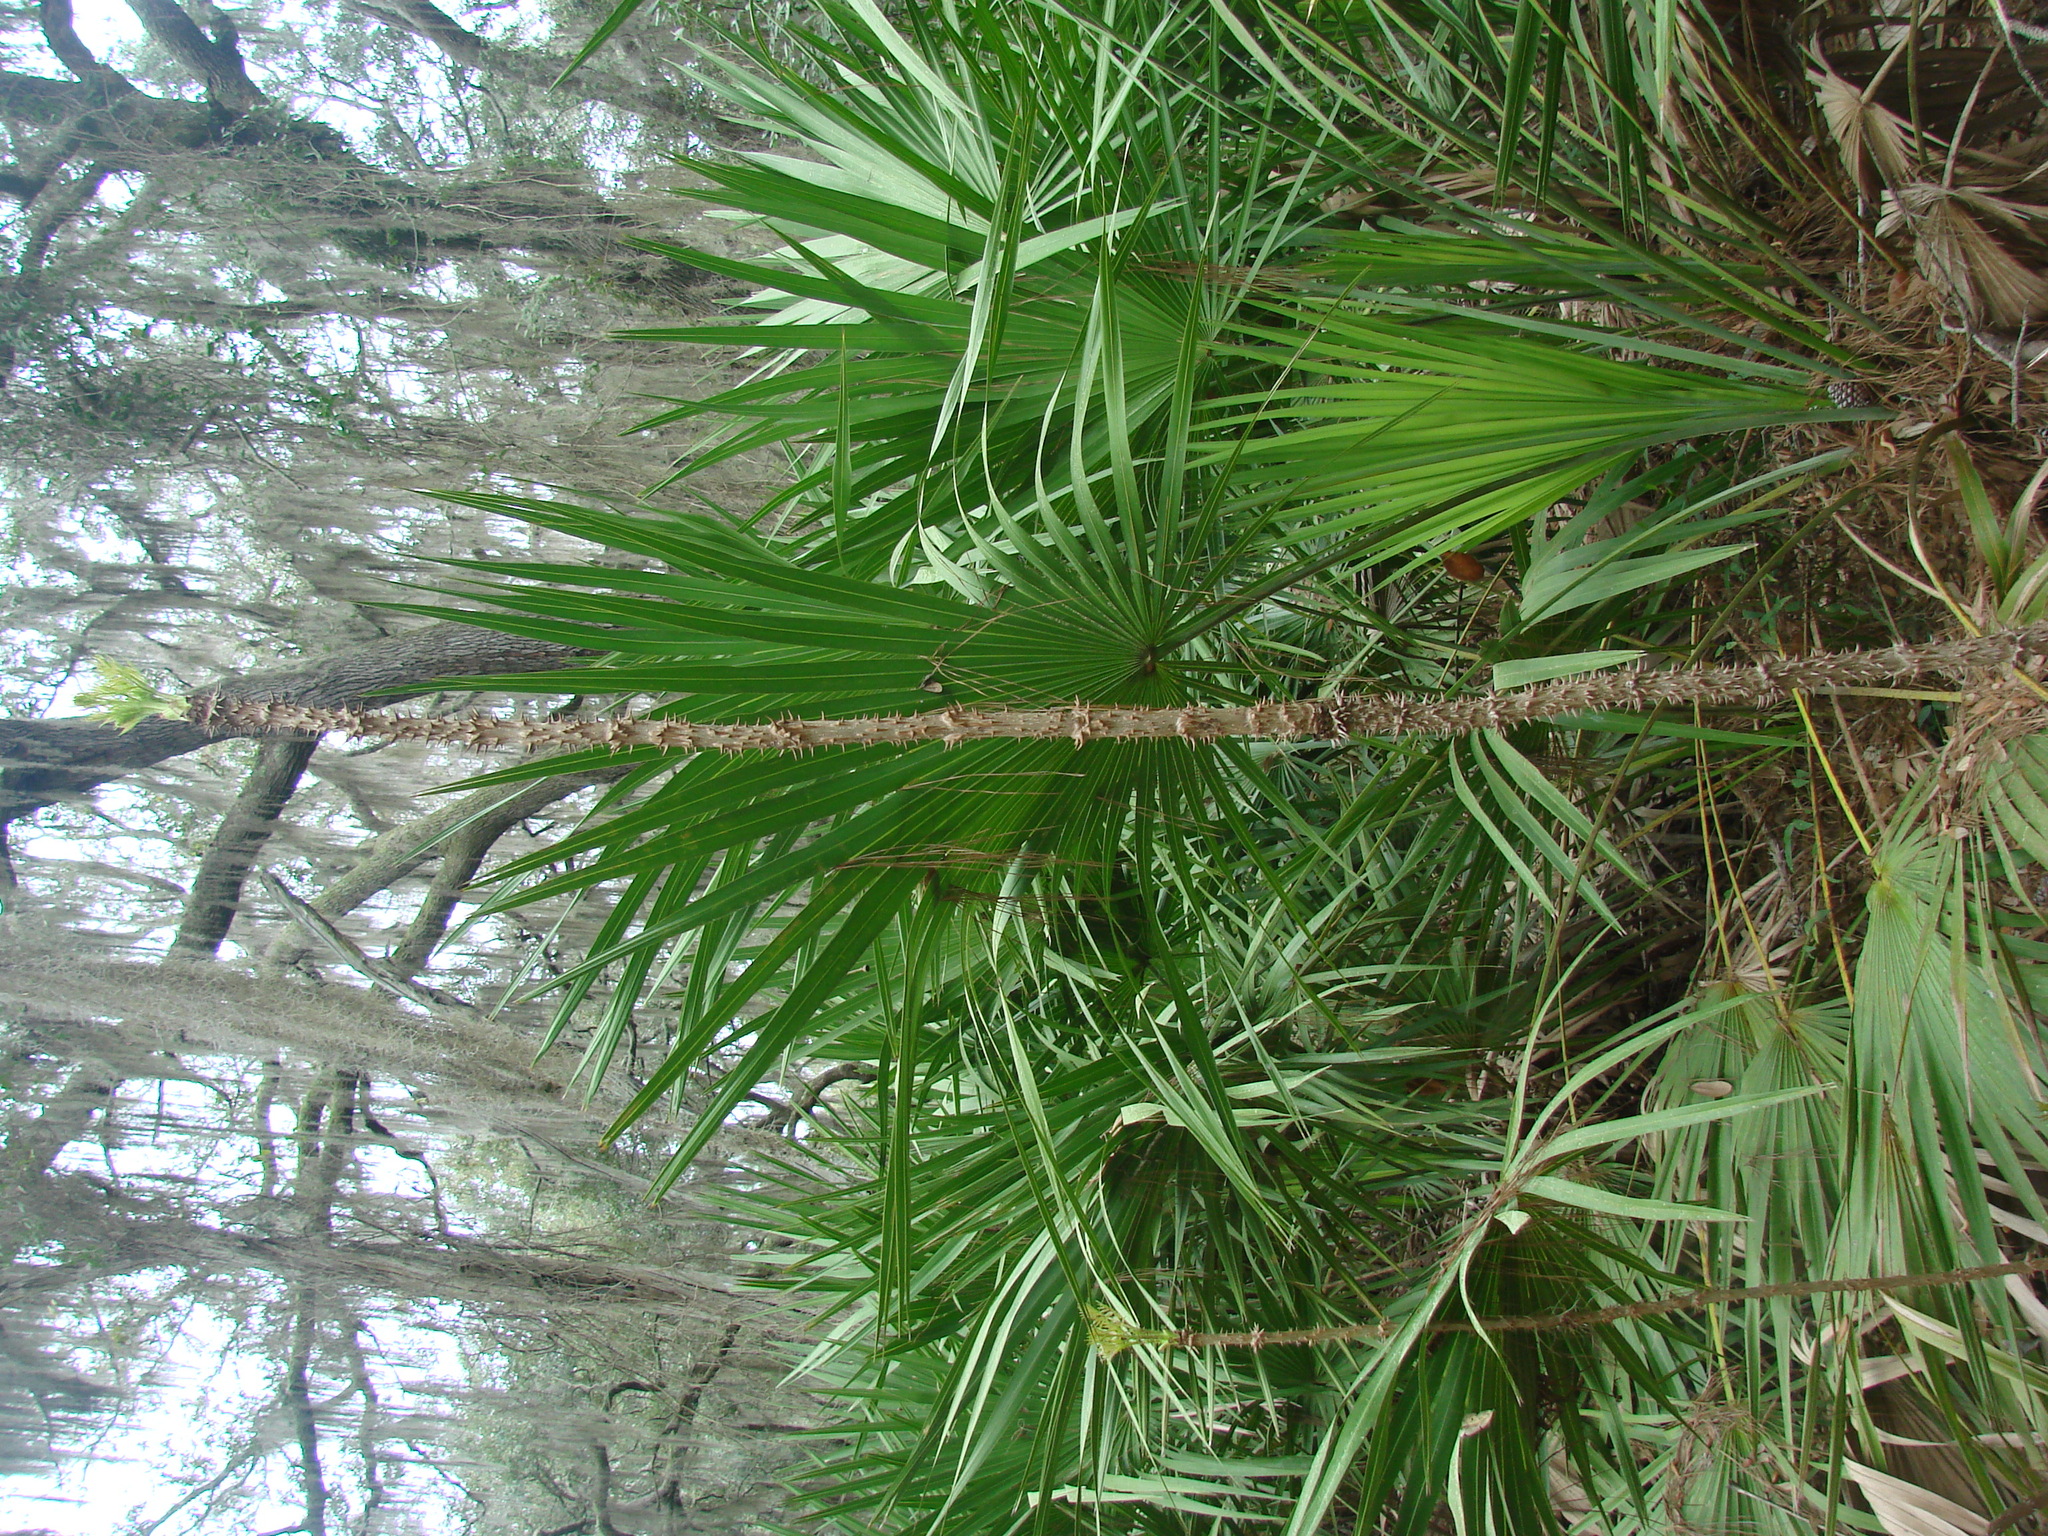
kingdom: Plantae
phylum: Tracheophyta
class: Magnoliopsida
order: Apiales
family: Araliaceae
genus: Aralia
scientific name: Aralia spinosa
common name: Hercules'-club
